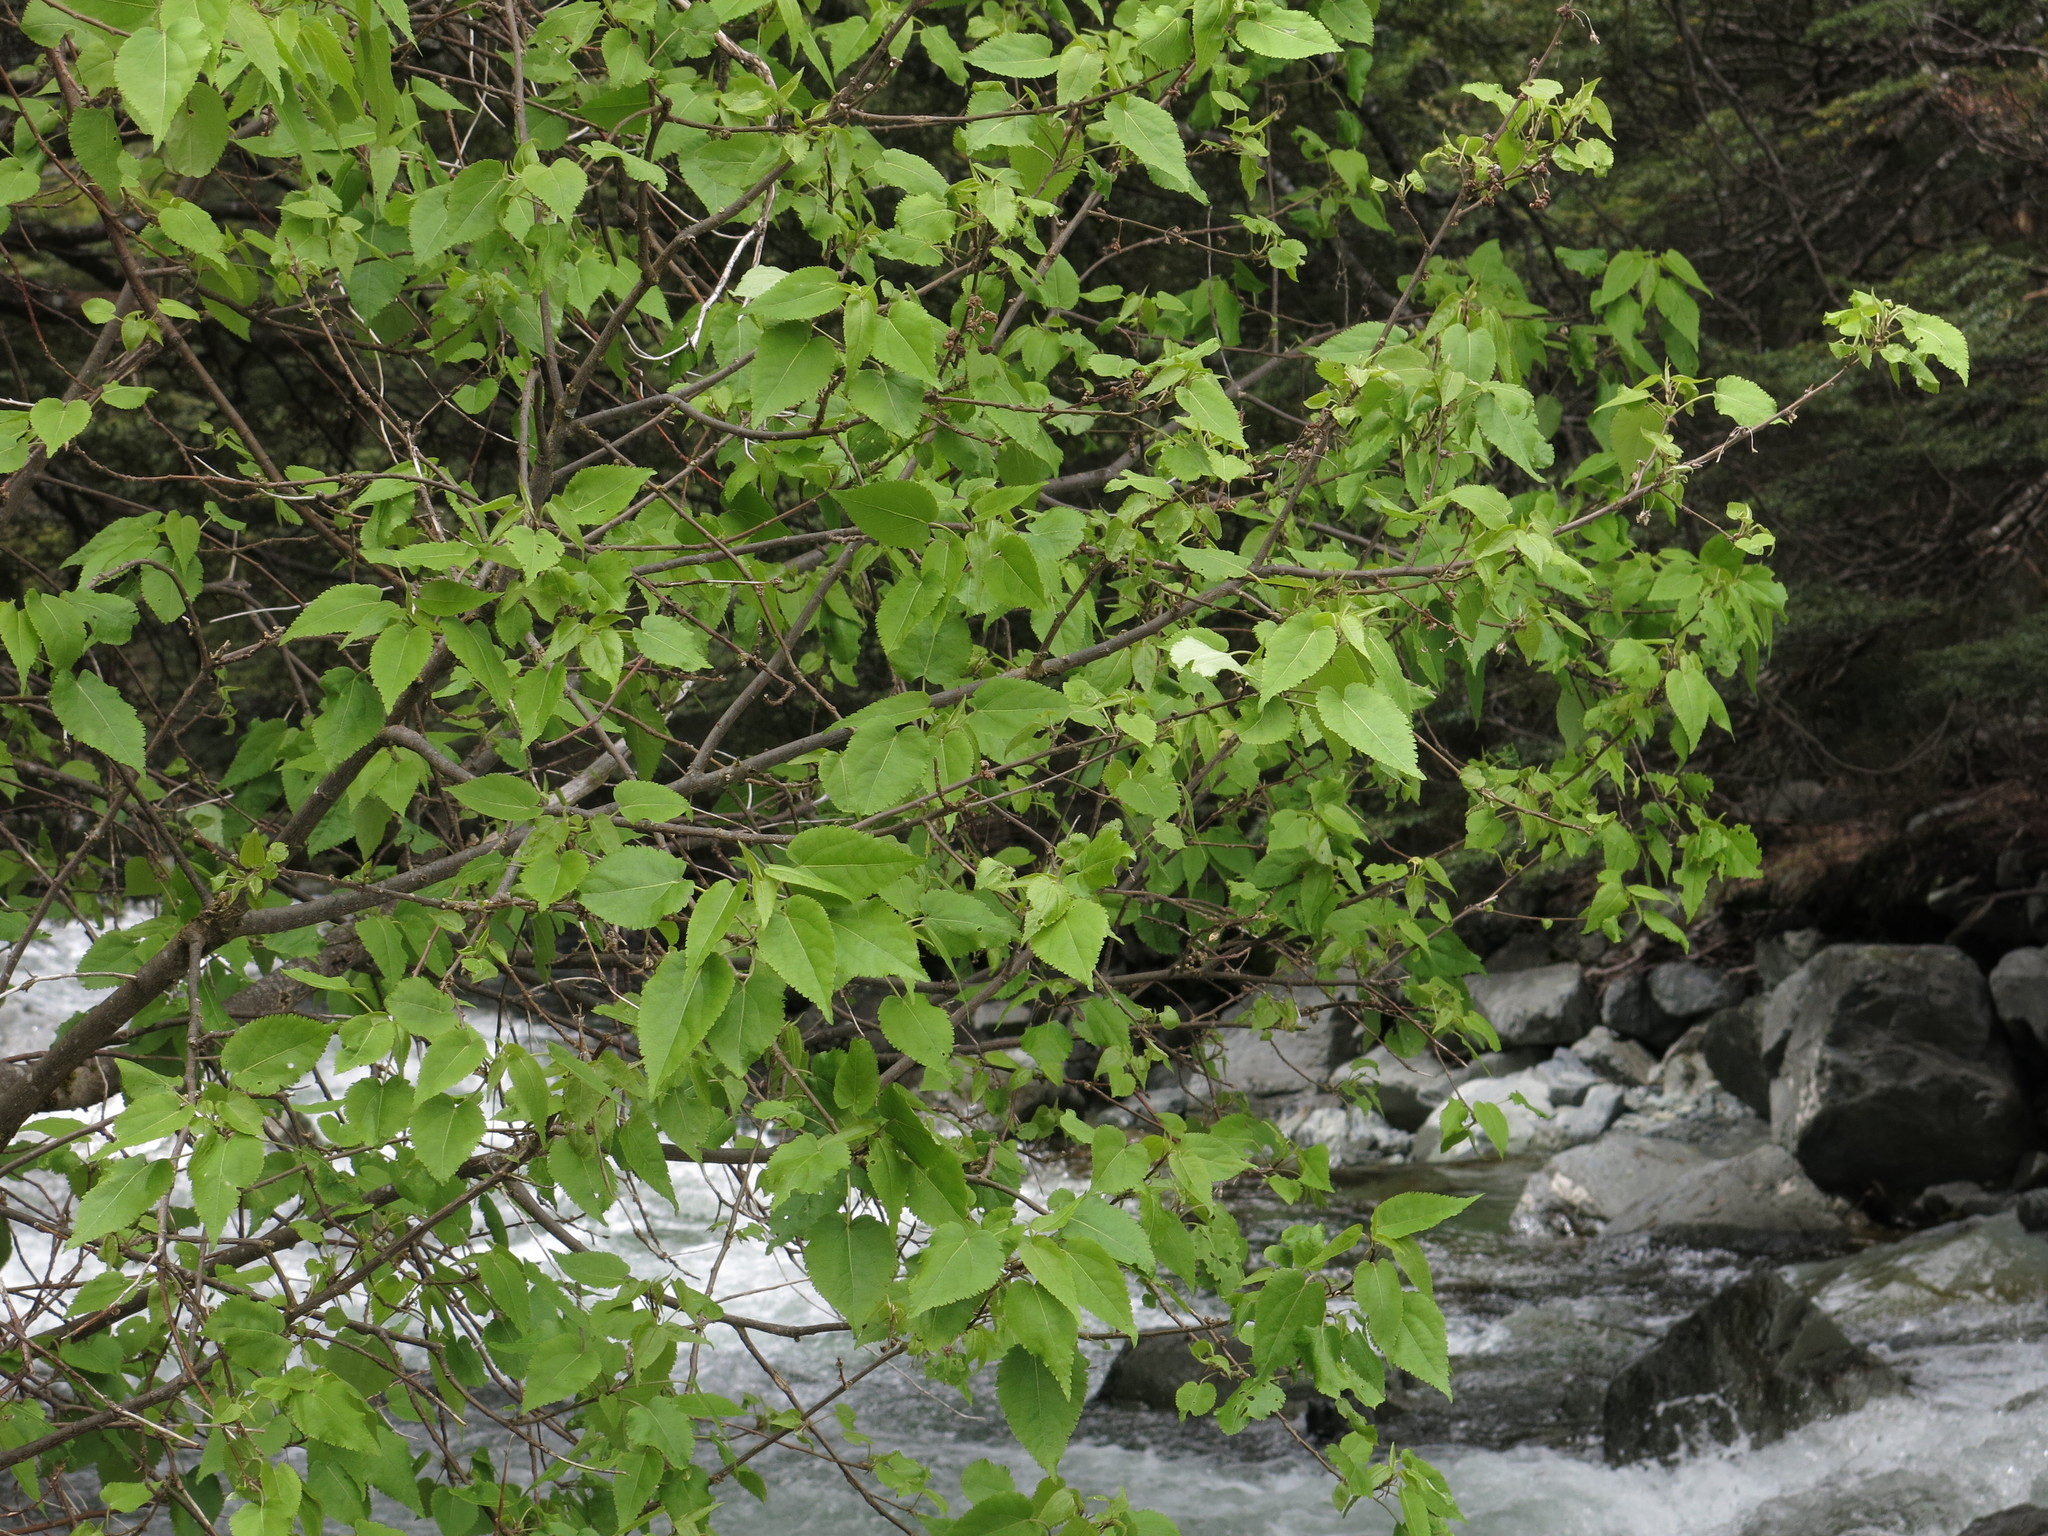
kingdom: Plantae
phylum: Tracheophyta
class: Magnoliopsida
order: Malvales
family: Malvaceae
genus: Hoheria
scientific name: Hoheria lyallii
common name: Lacebark
